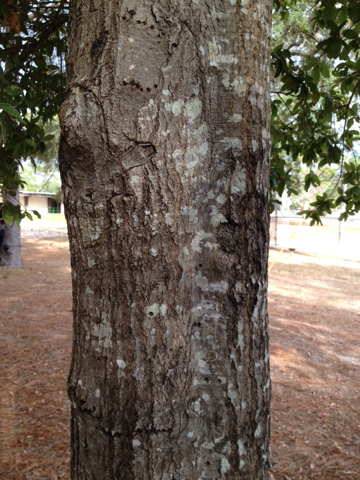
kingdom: Plantae
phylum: Tracheophyta
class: Magnoliopsida
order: Fagales
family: Fagaceae
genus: Quercus
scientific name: Quercus laurifolia
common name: Swamp laurel oak
